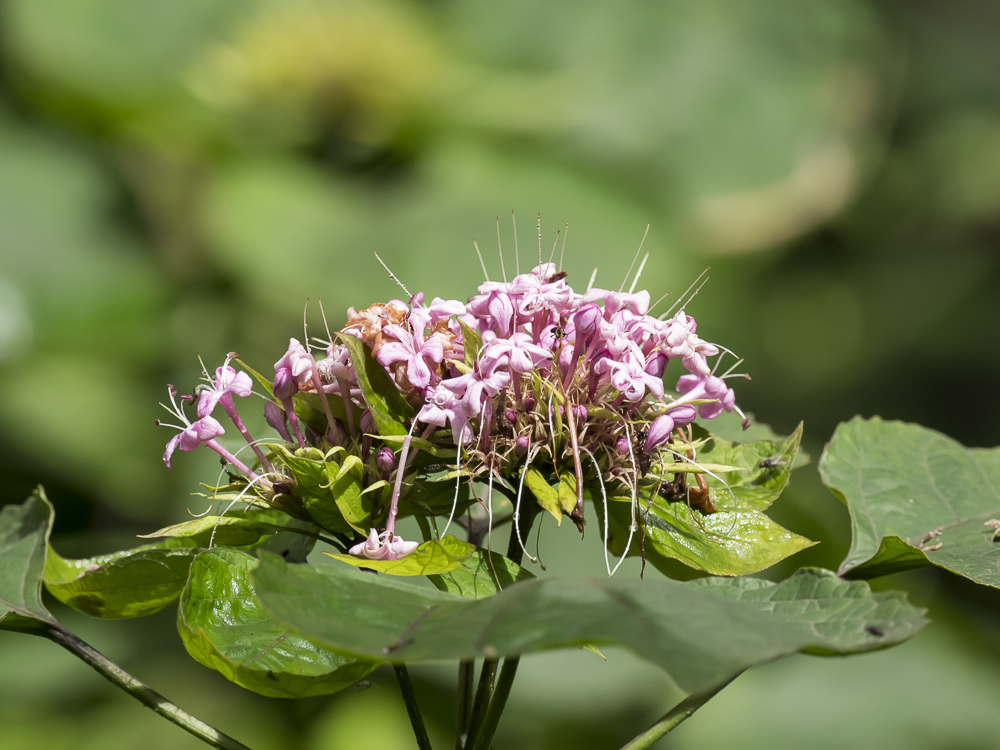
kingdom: Plantae
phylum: Tracheophyta
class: Magnoliopsida
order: Lamiales
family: Lamiaceae
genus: Clerodendrum
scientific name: Clerodendrum bungei
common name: Rose glorybower
